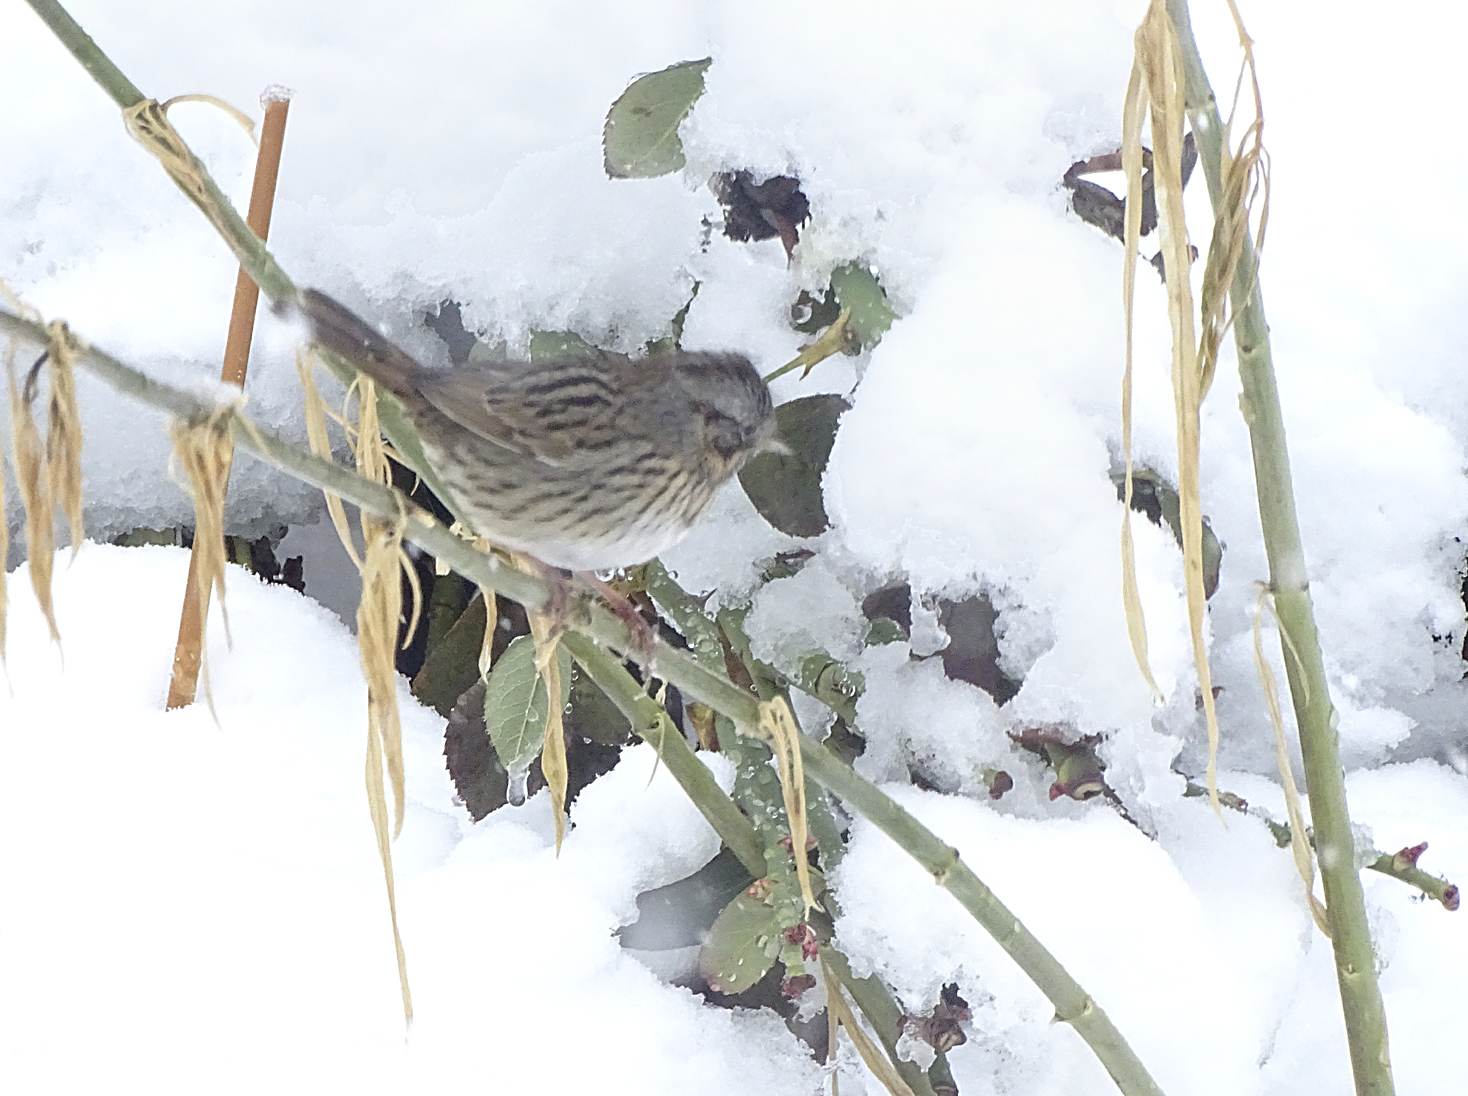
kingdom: Animalia
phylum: Chordata
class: Aves
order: Passeriformes
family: Passerellidae
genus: Melospiza
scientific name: Melospiza lincolnii
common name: Lincoln's sparrow
